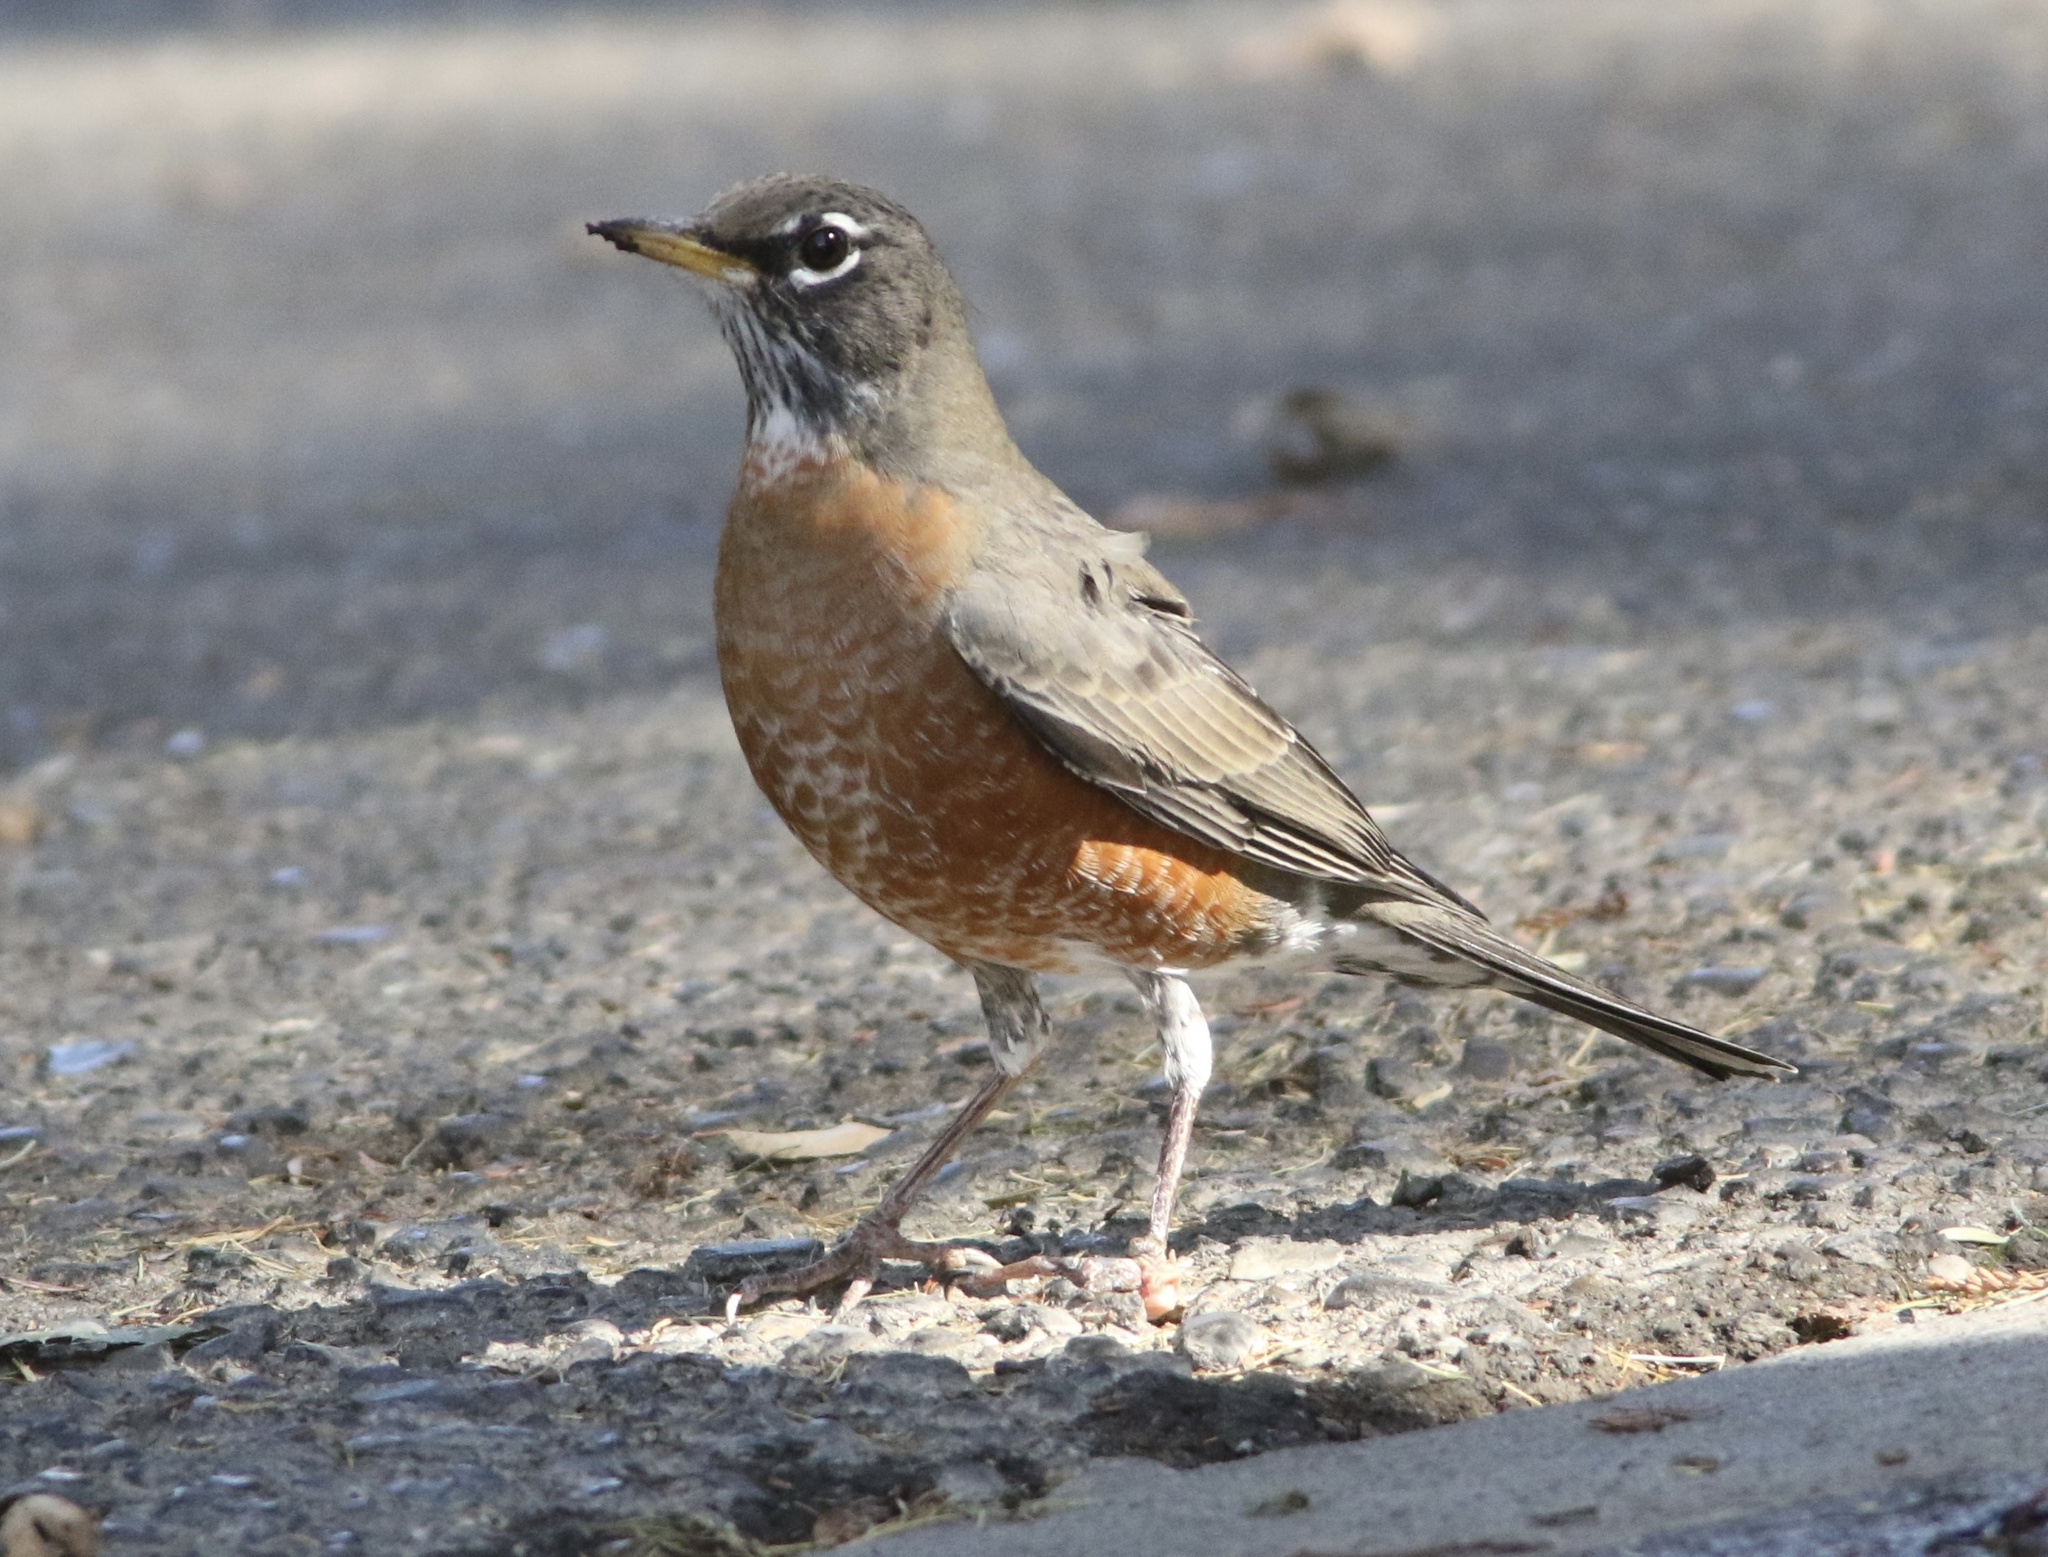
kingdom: Animalia
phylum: Chordata
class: Aves
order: Passeriformes
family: Turdidae
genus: Turdus
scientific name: Turdus migratorius
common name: American robin
